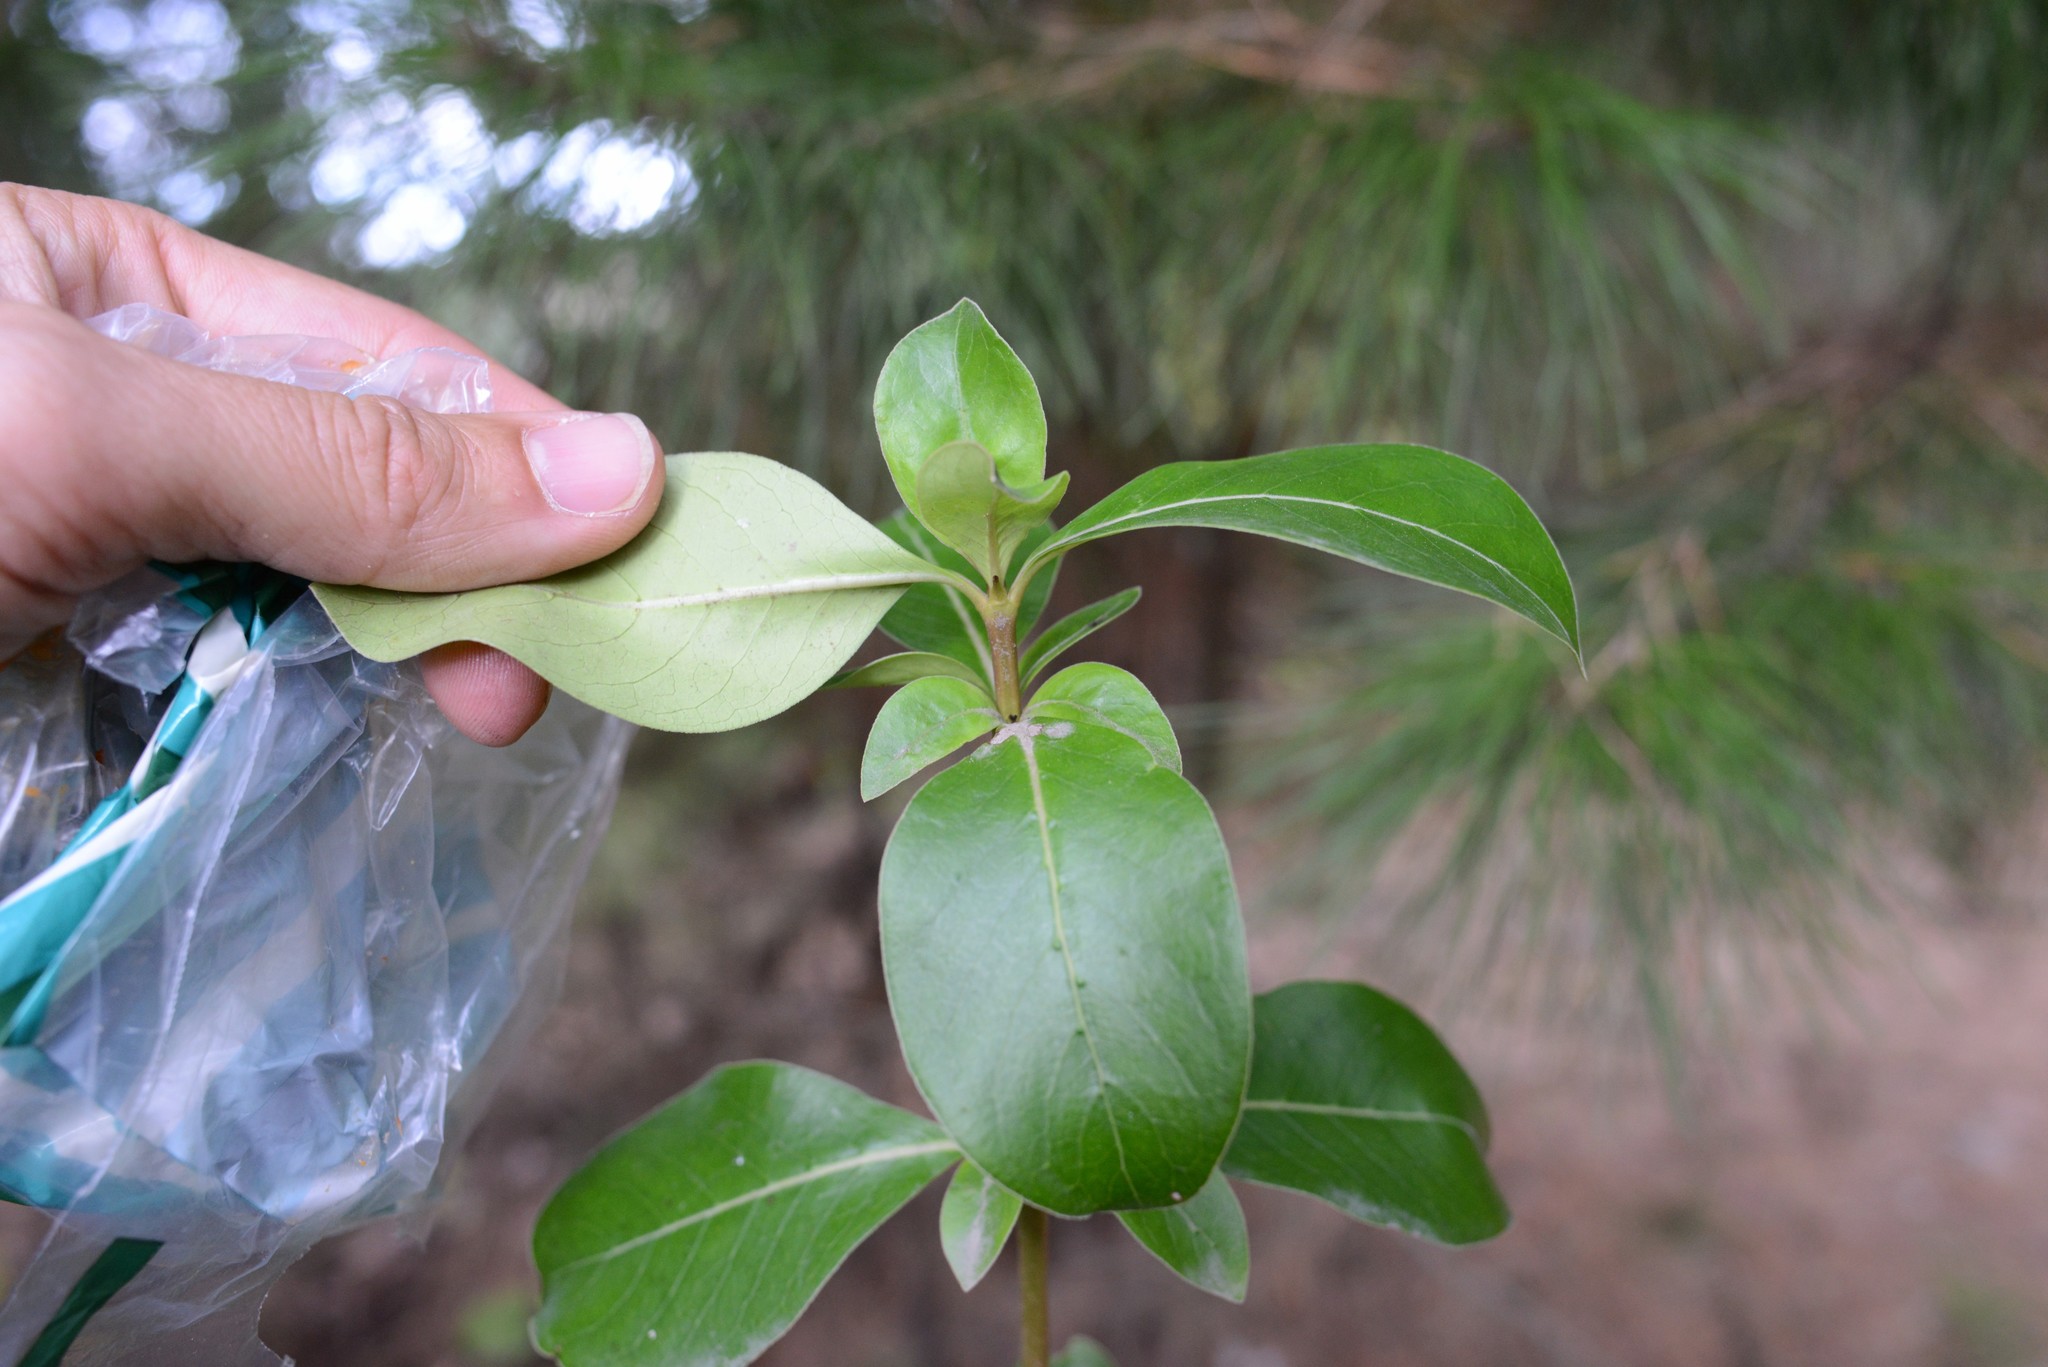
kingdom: Plantae
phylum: Tracheophyta
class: Magnoliopsida
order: Gentianales
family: Rubiaceae
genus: Coprosma
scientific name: Coprosma robusta
